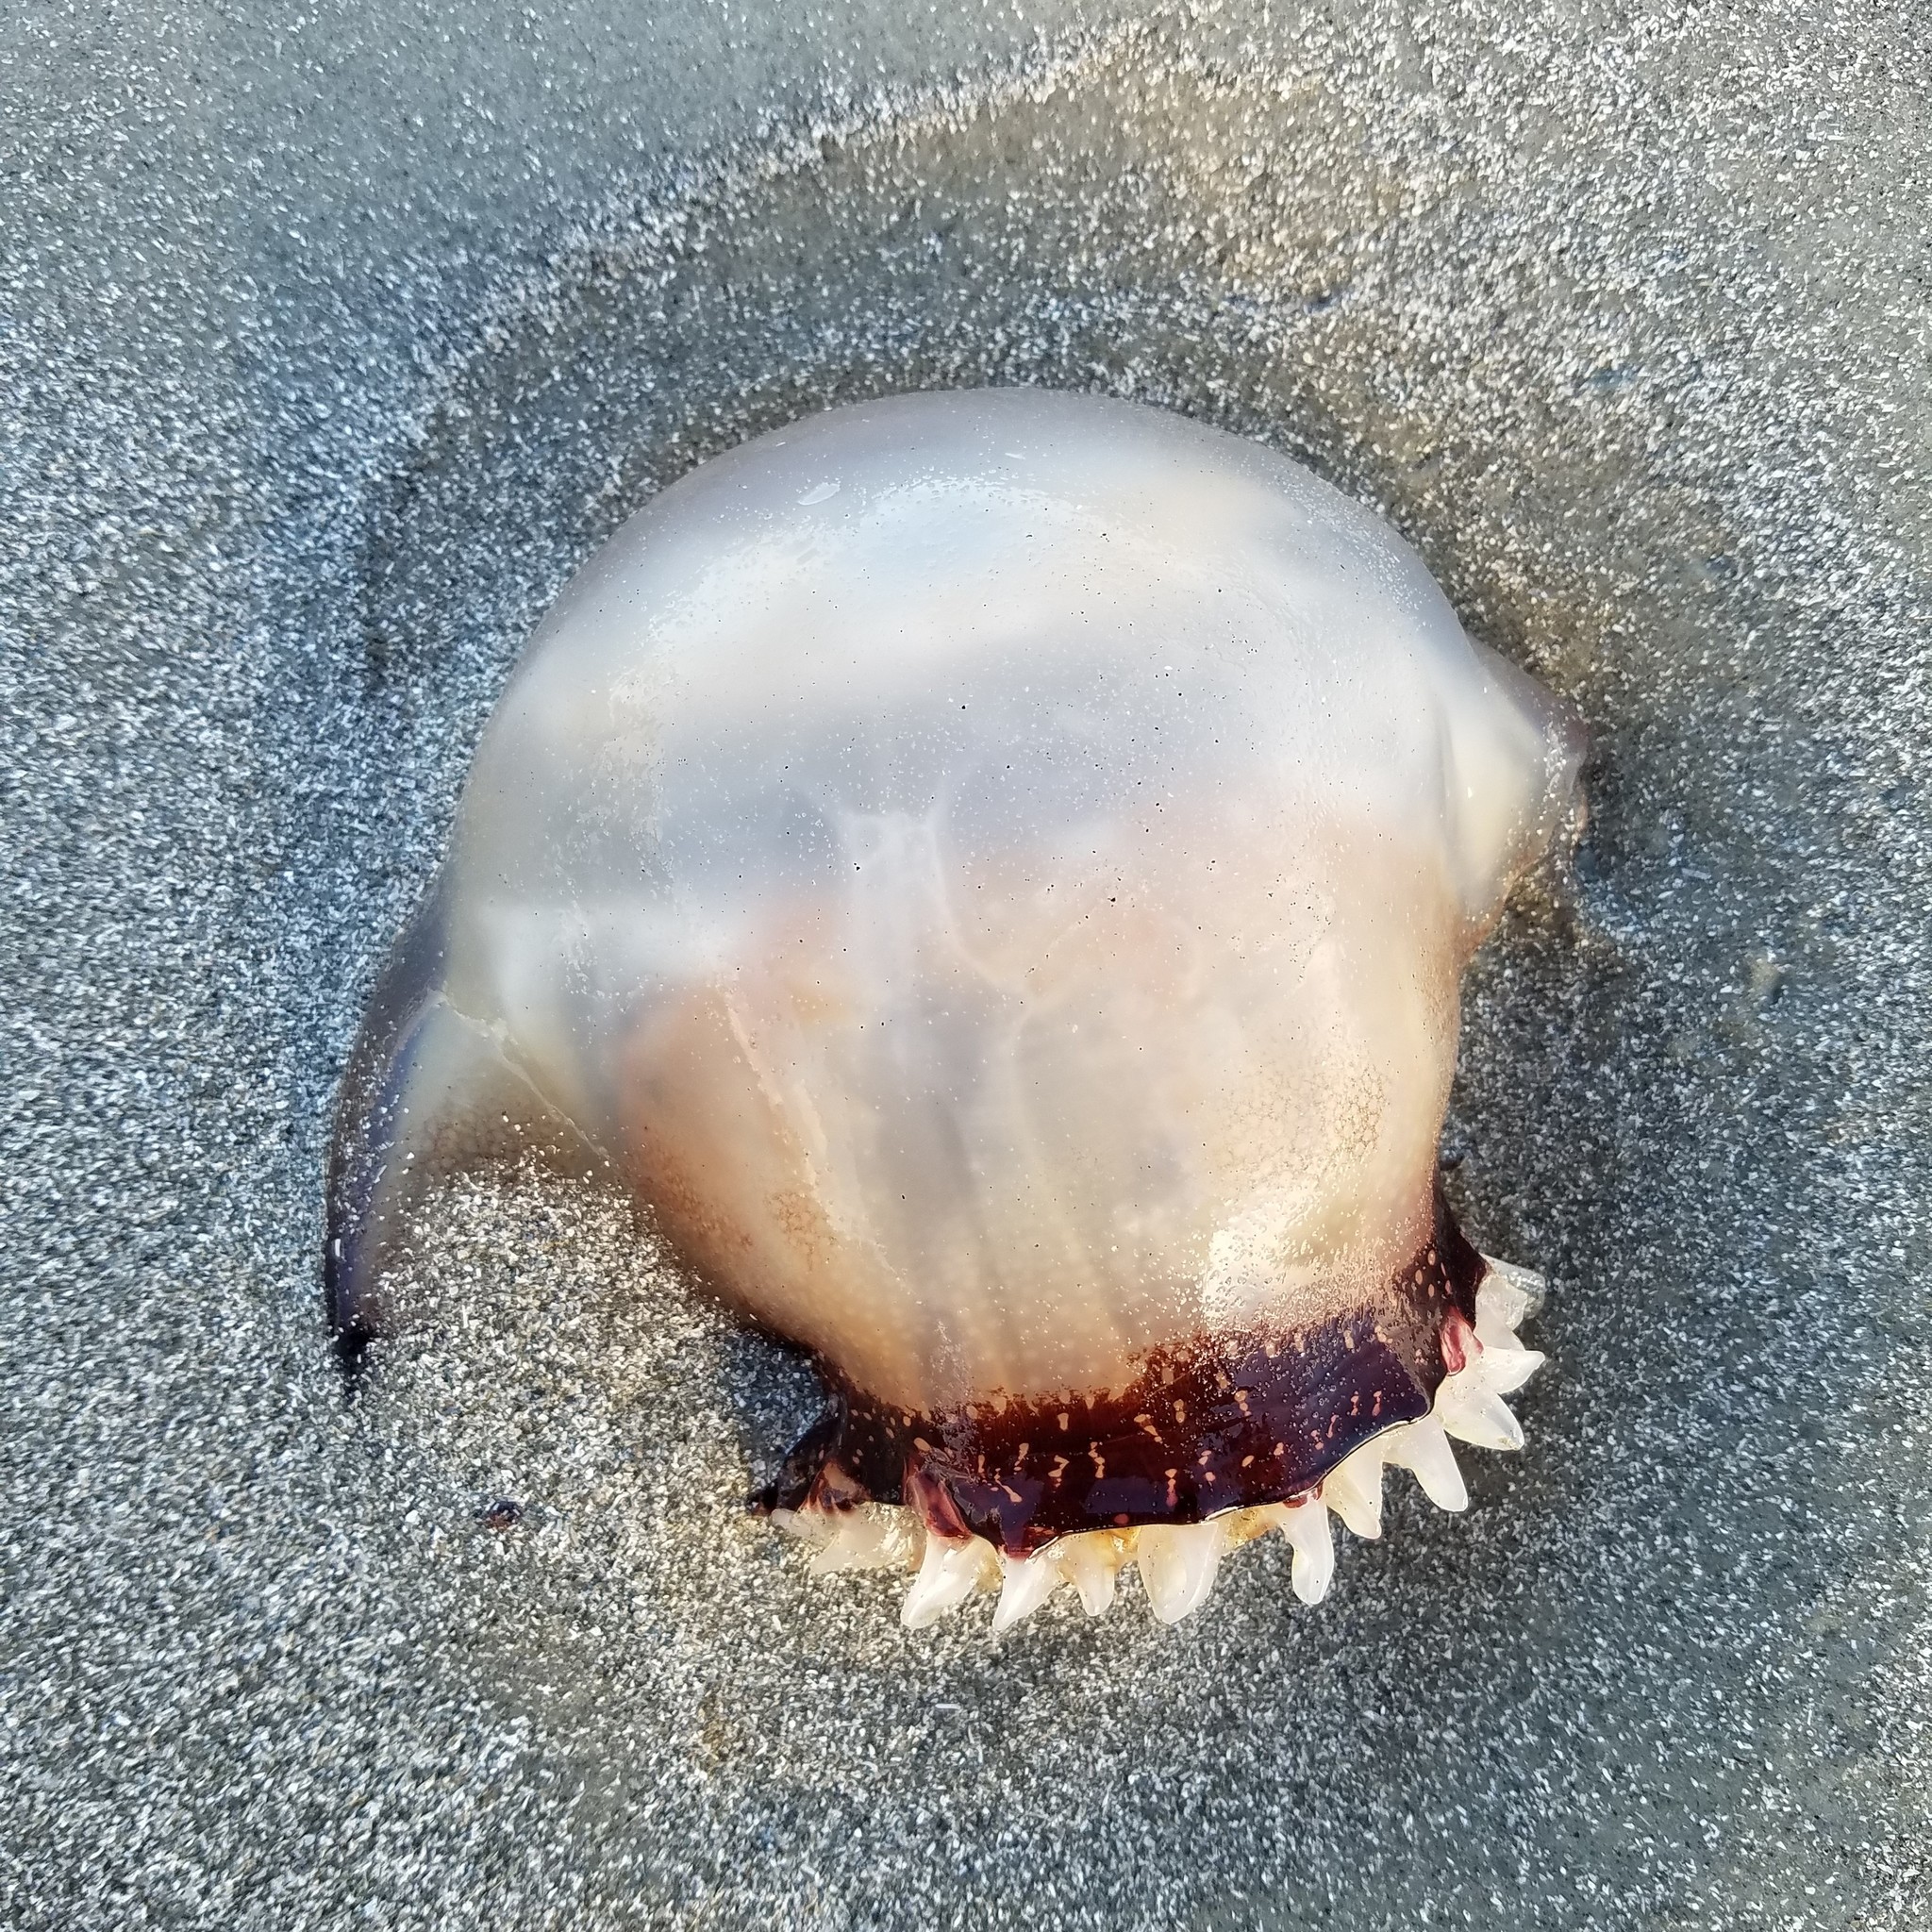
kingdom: Animalia
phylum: Cnidaria
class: Scyphozoa
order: Rhizostomeae
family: Stomolophidae
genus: Stomolophus
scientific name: Stomolophus meleagris
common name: Cabbagehead
